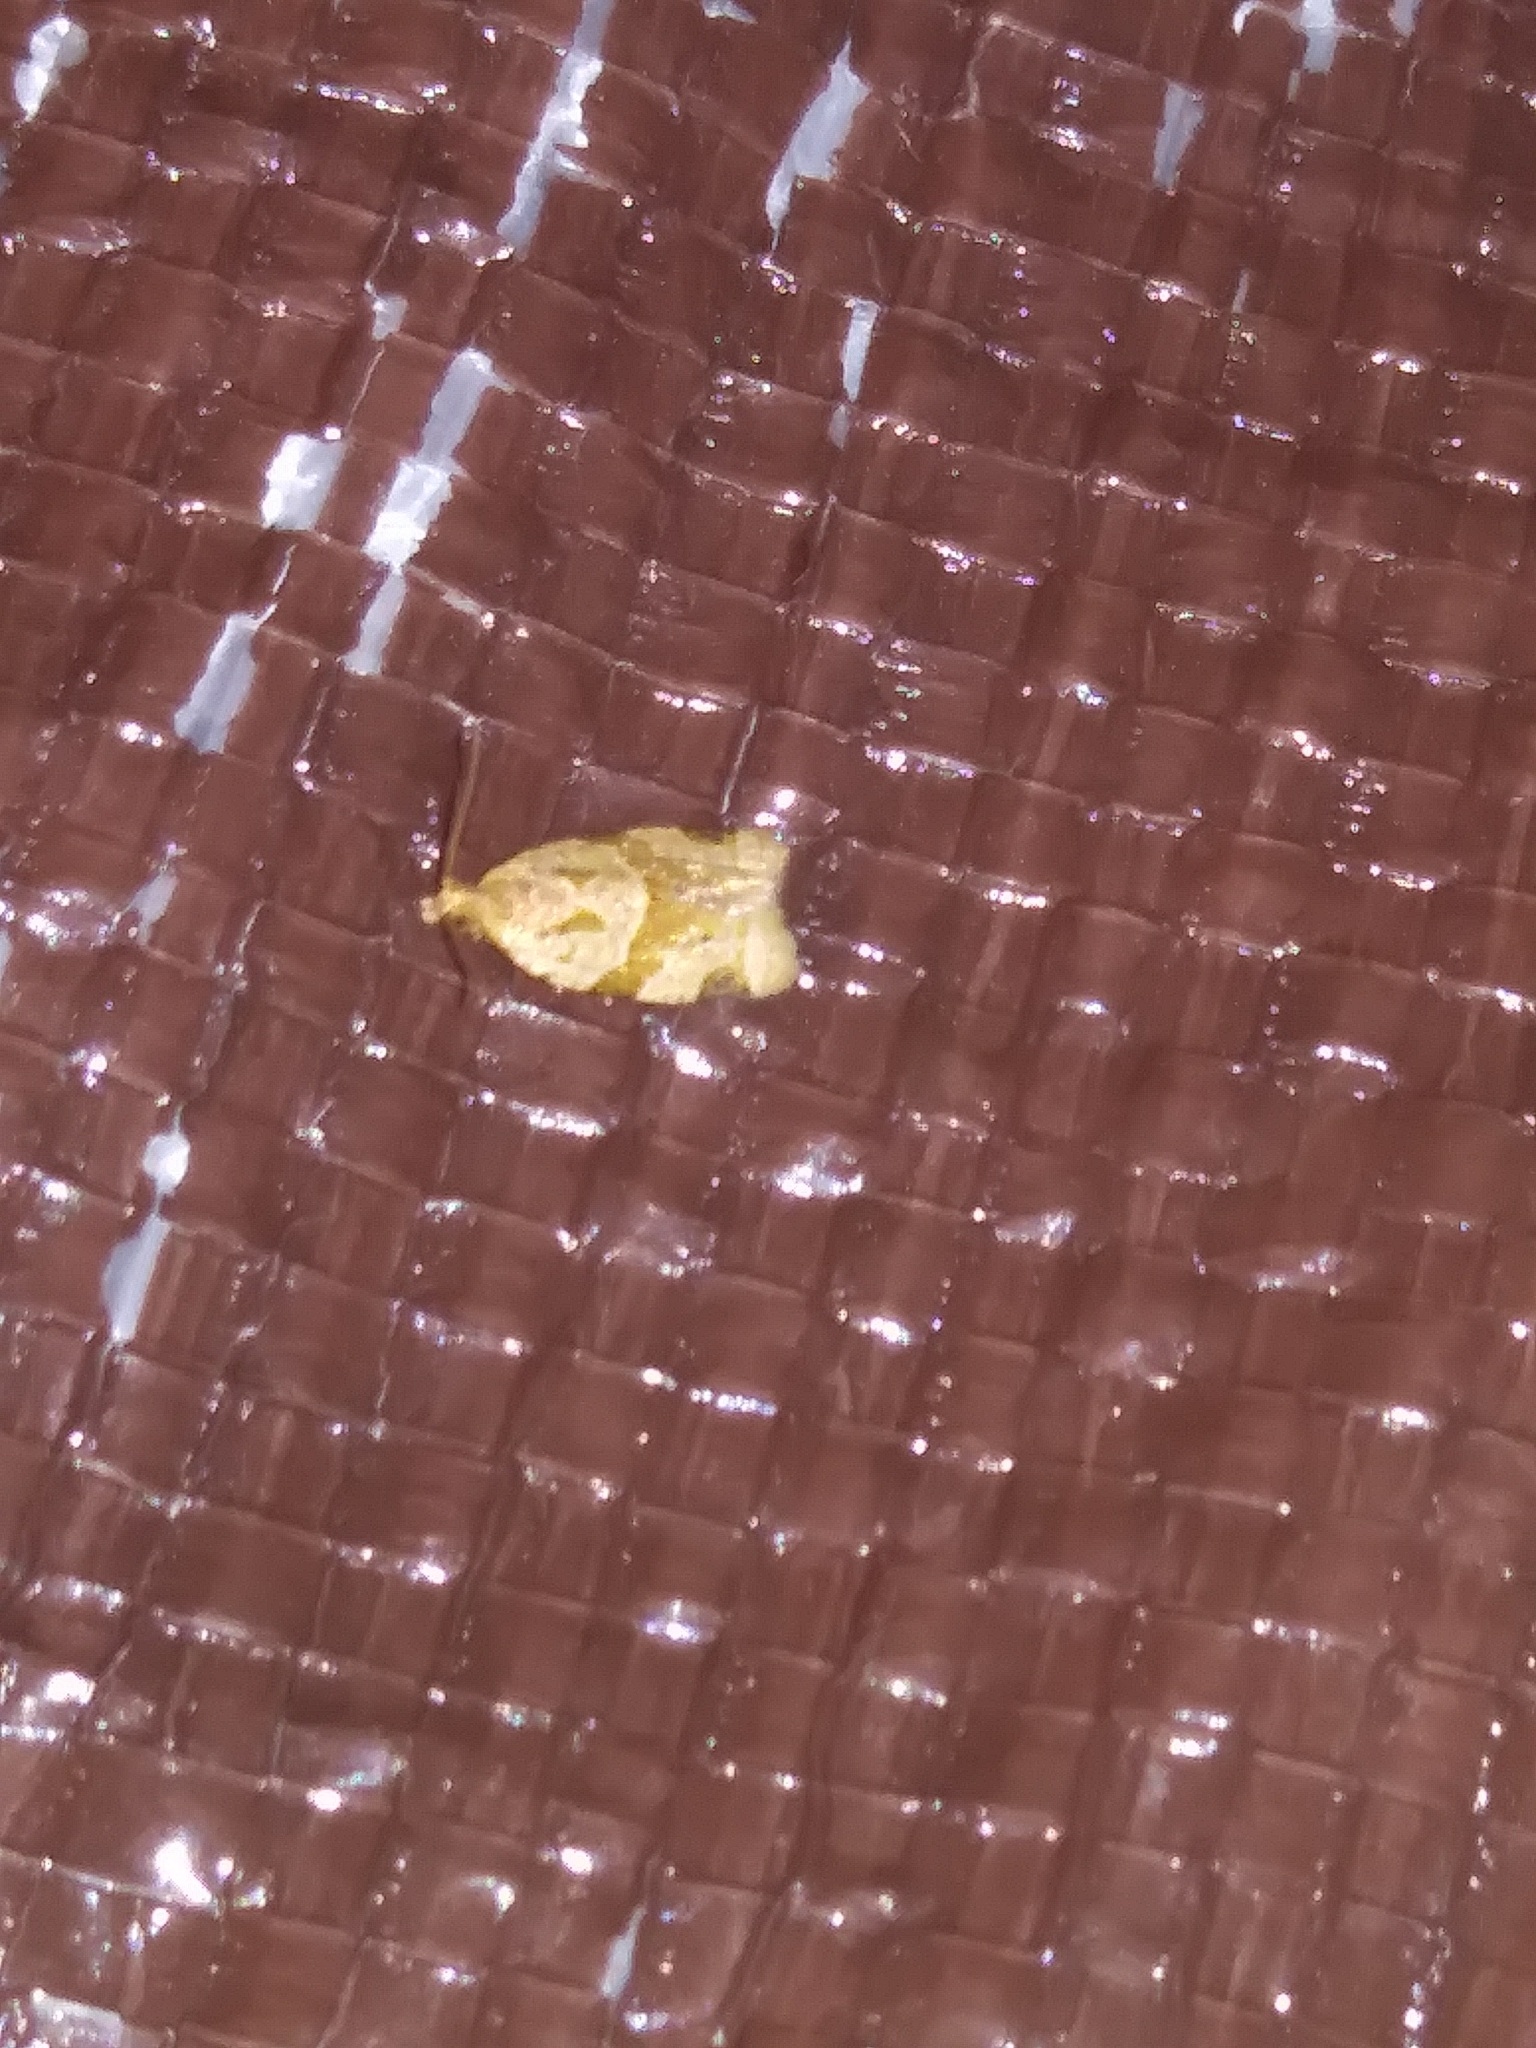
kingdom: Animalia
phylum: Arthropoda
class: Insecta
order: Lepidoptera
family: Tortricidae
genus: Clepsis
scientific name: Clepsis peritana
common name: Garden tortrix
